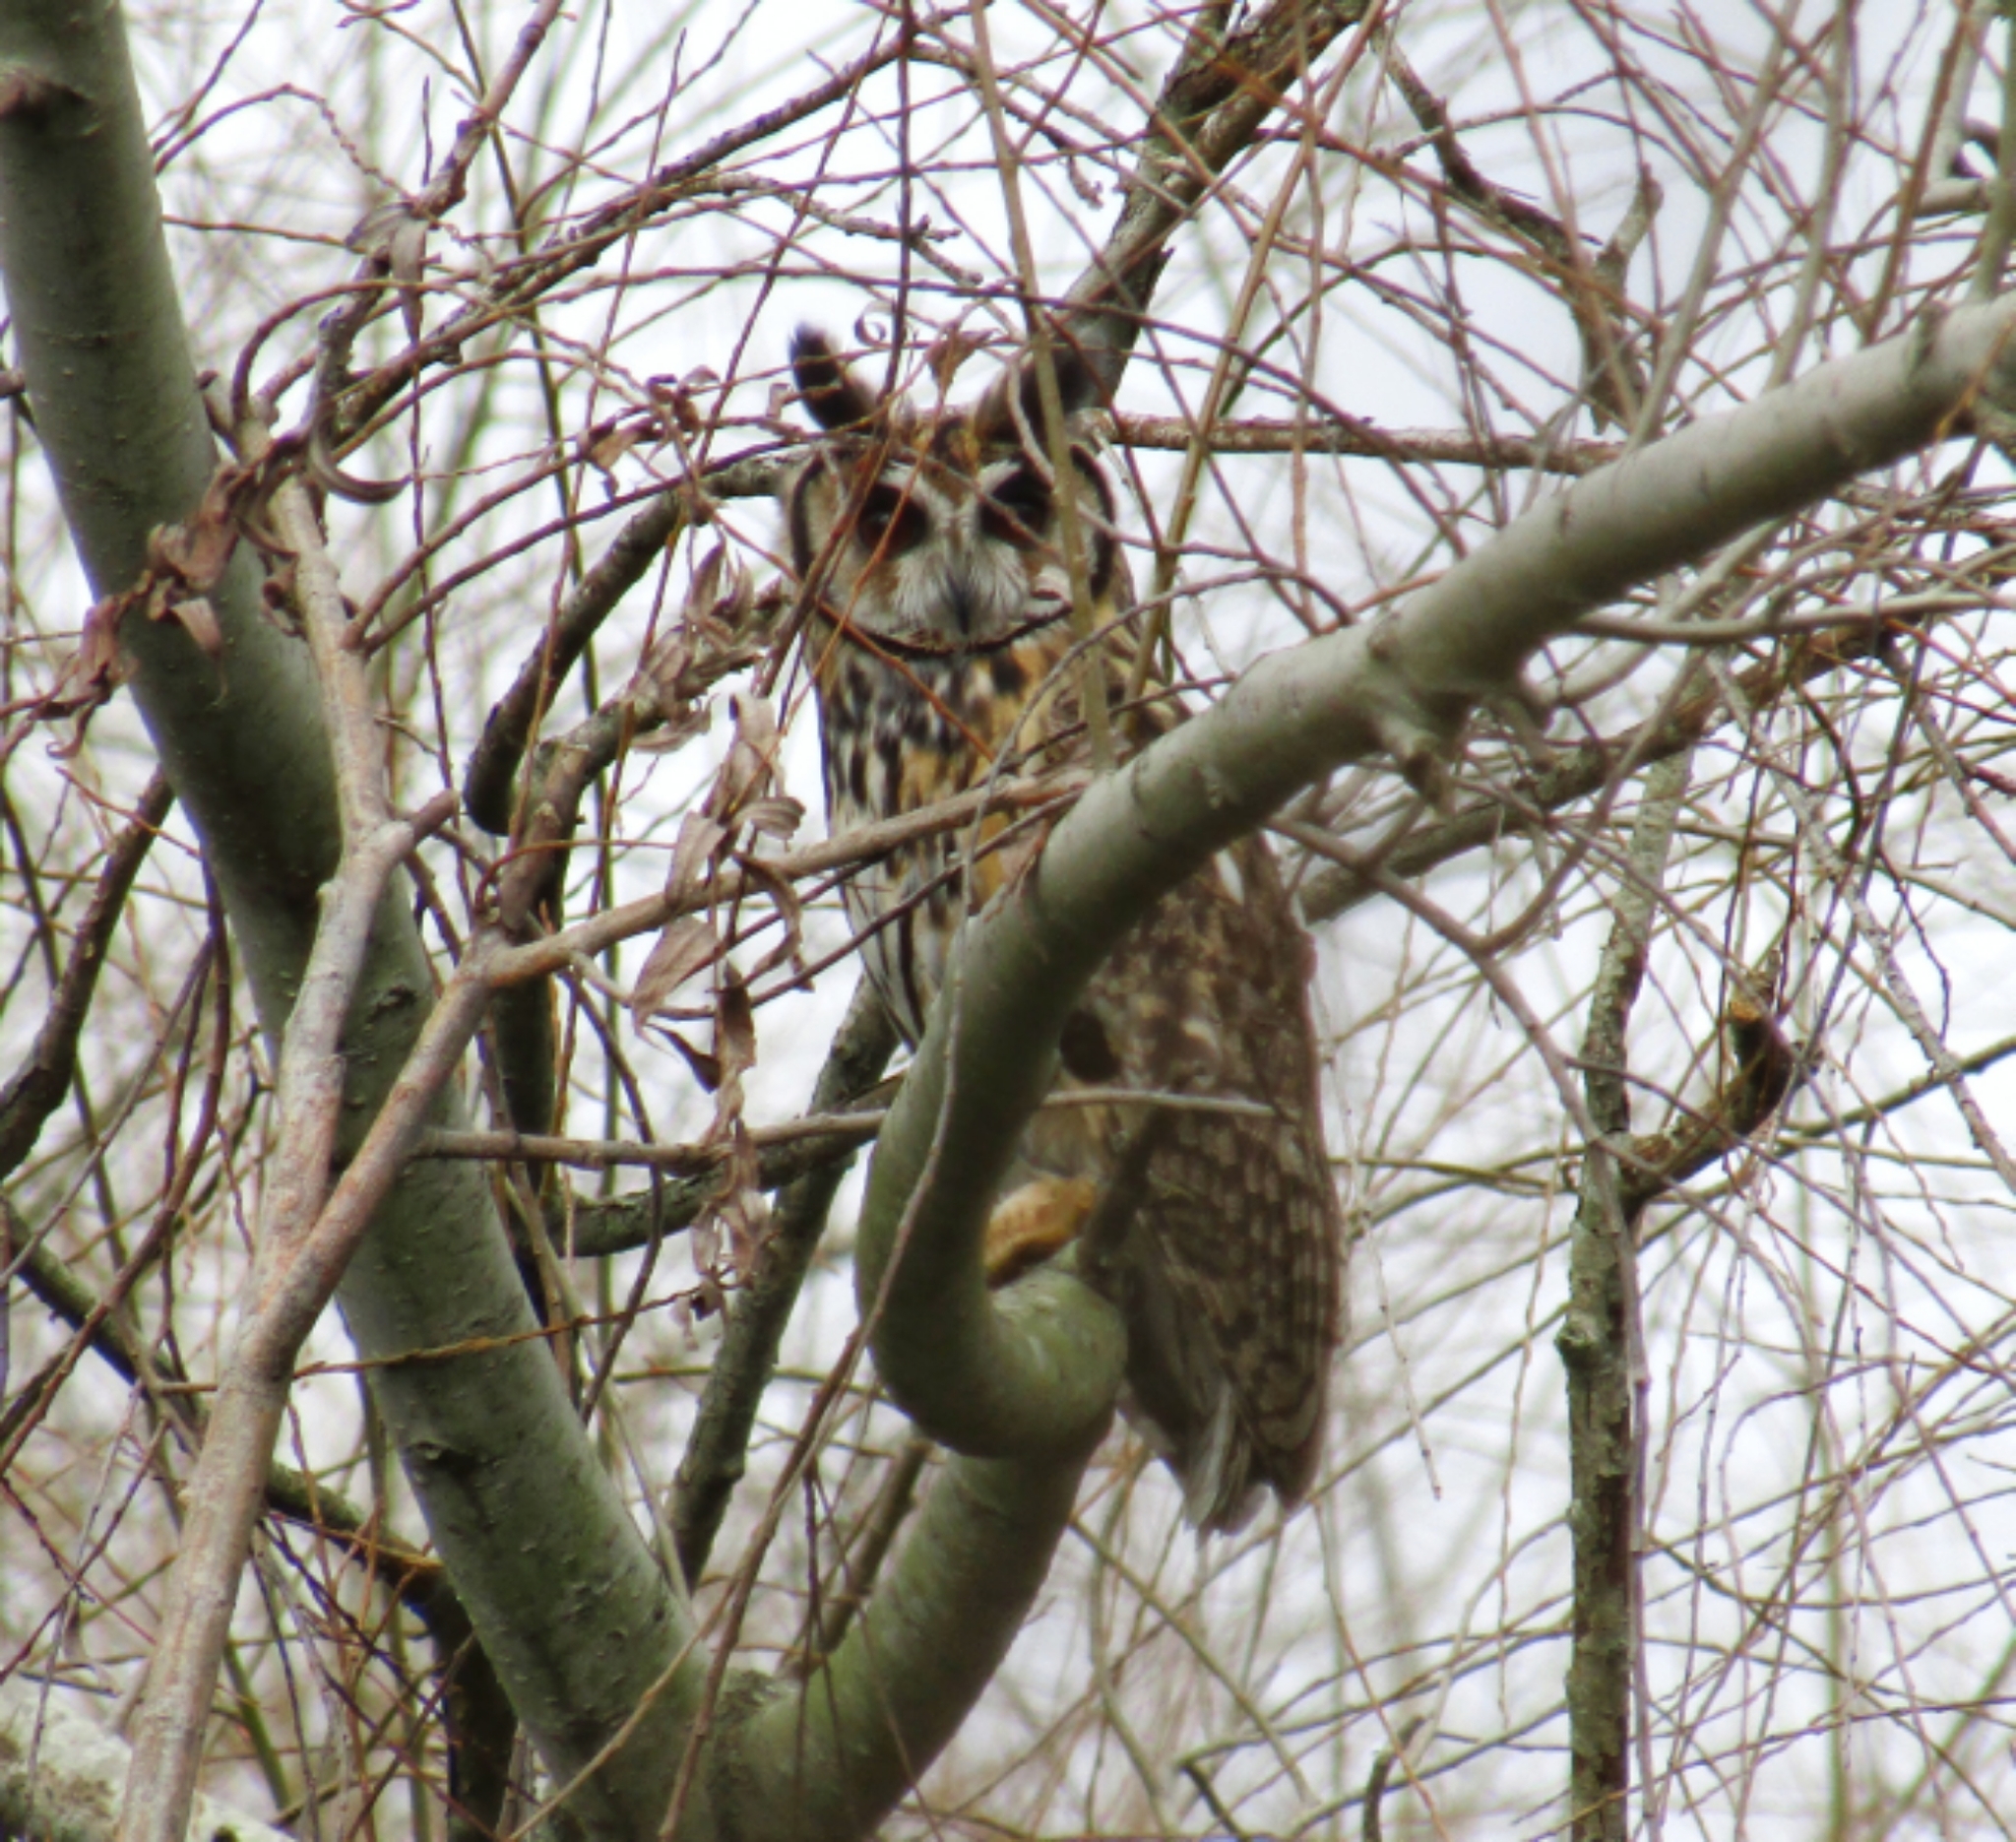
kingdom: Animalia
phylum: Chordata
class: Aves
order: Strigiformes
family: Strigidae
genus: Pseudoscops
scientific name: Pseudoscops clamator
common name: Striped owl
